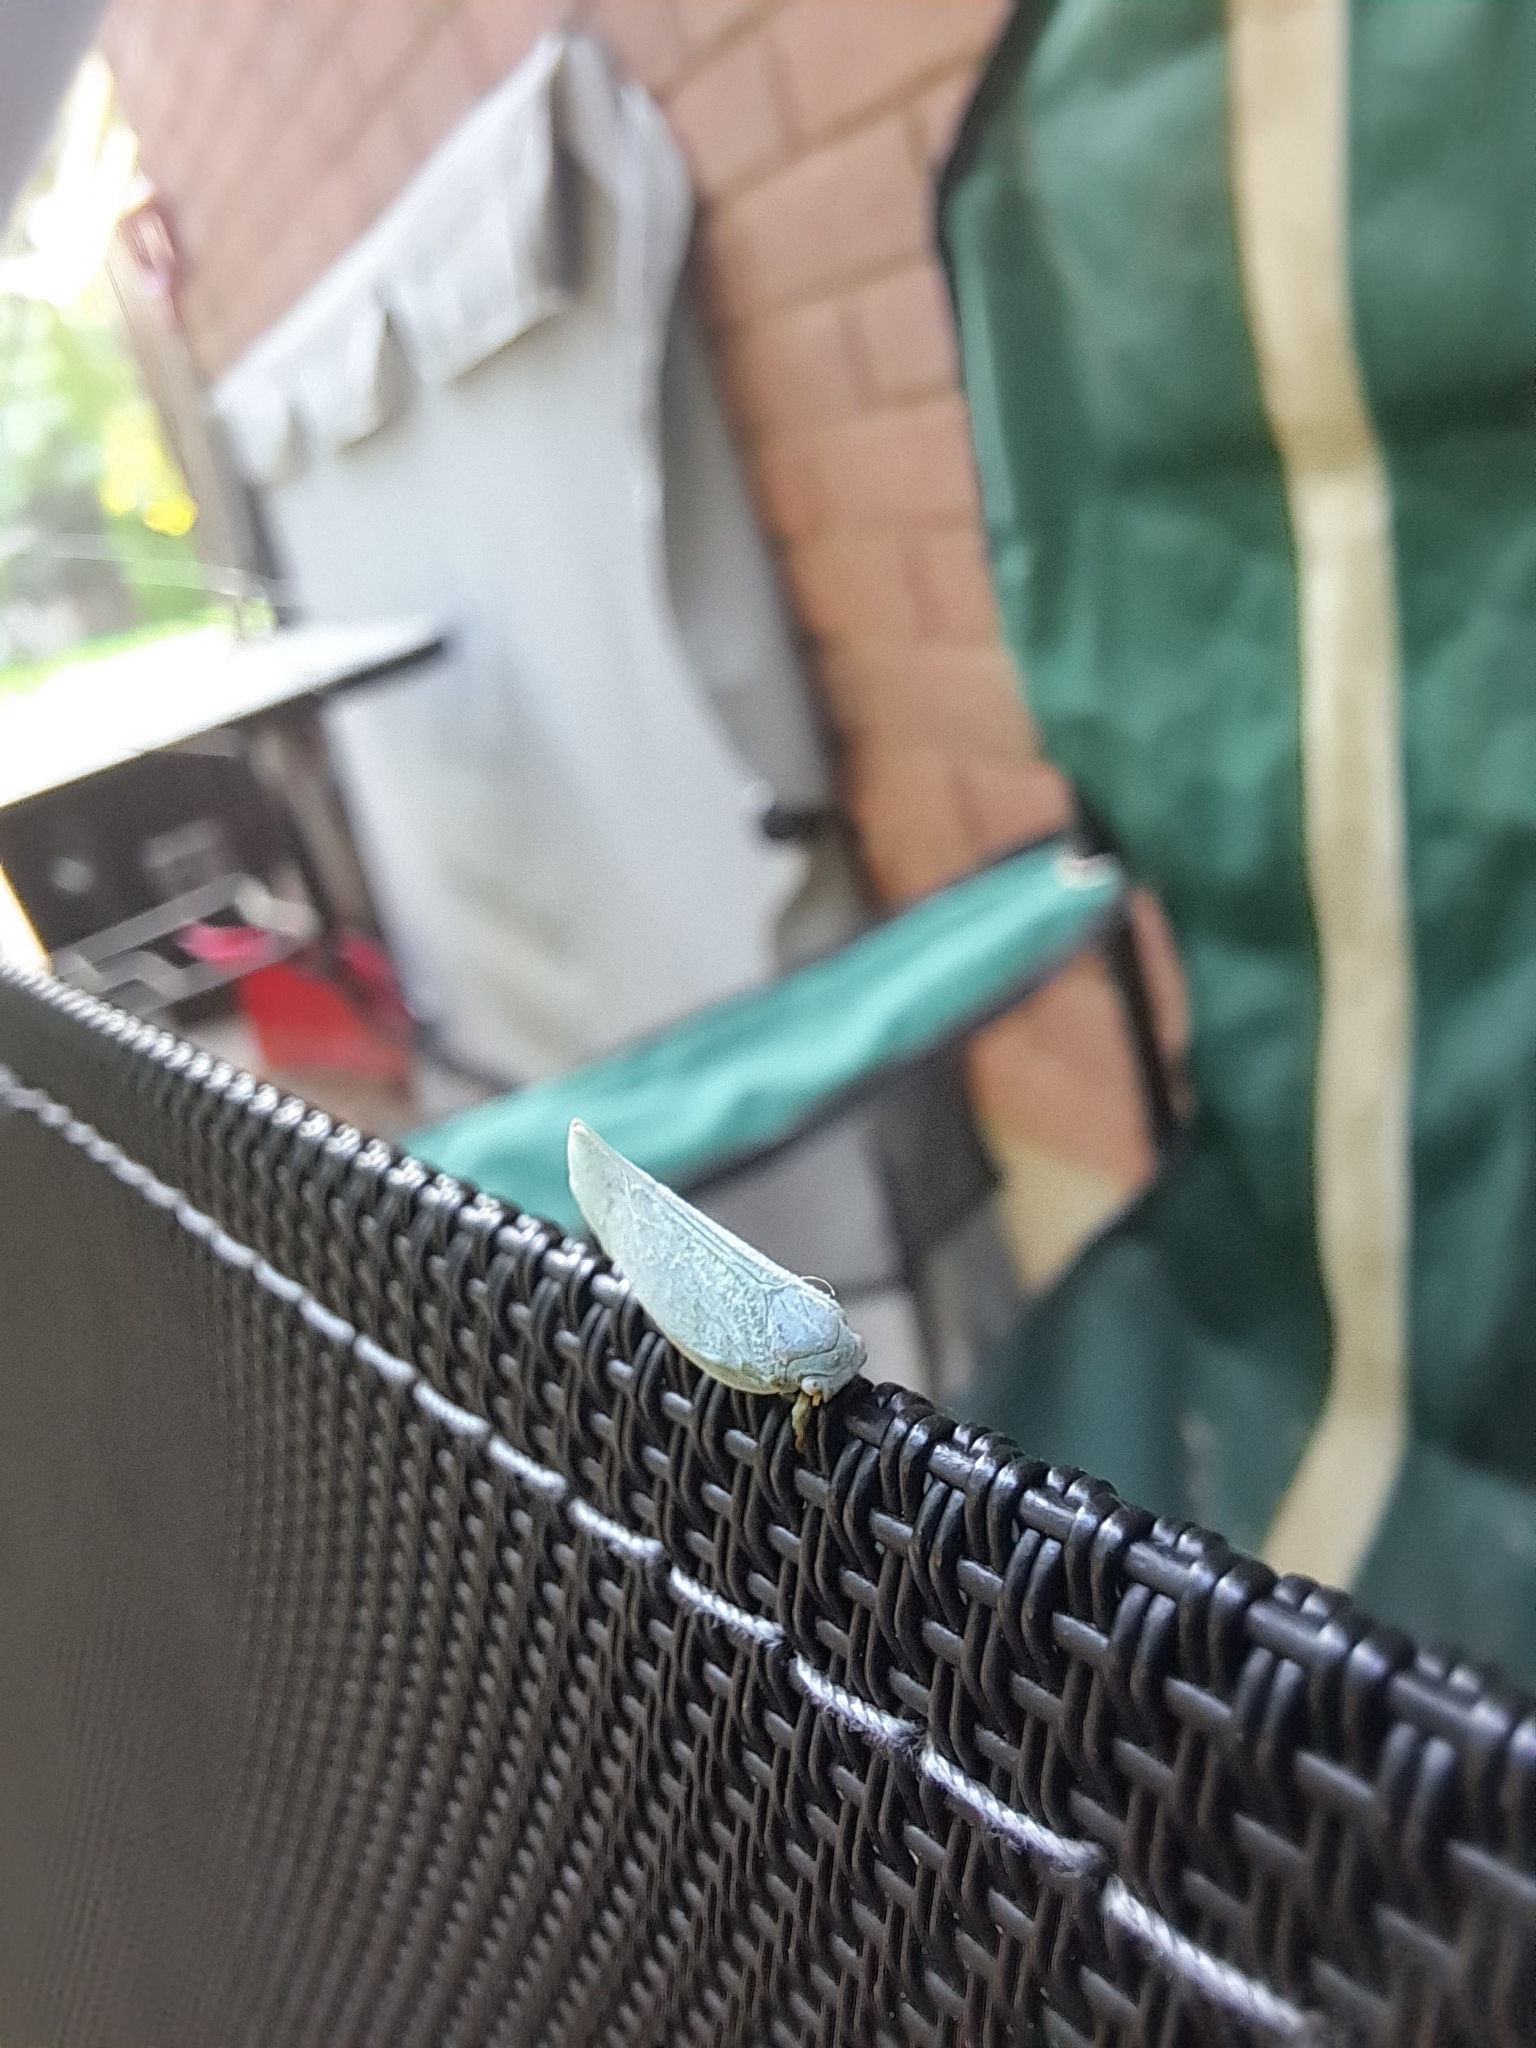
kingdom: Animalia
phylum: Arthropoda
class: Insecta
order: Hemiptera
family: Flatidae
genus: Flatormenis
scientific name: Flatormenis proxima
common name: Northern flatid planthopper
